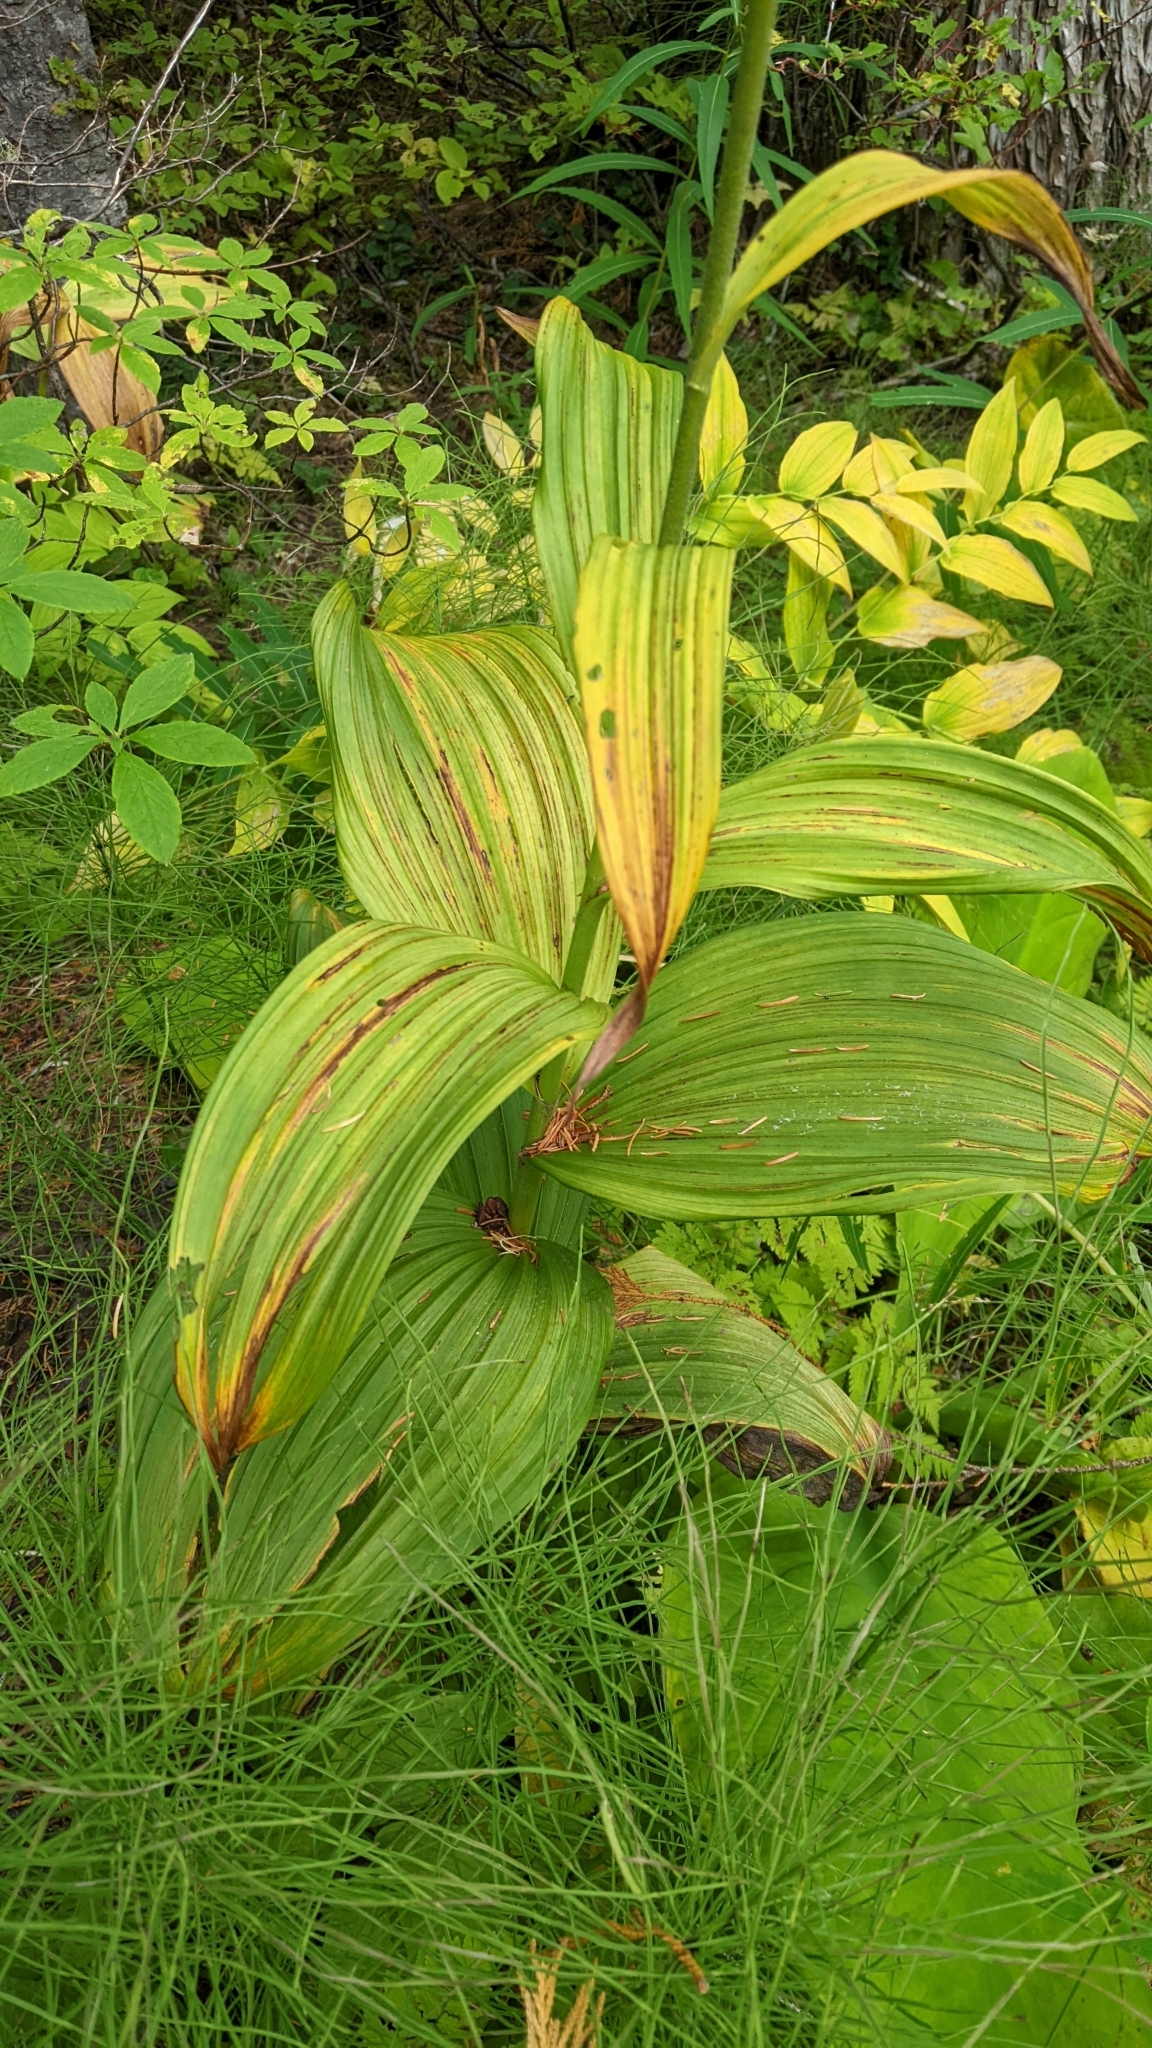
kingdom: Plantae
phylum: Tracheophyta
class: Liliopsida
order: Liliales
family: Melanthiaceae
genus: Veratrum
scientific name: Veratrum viride
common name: American false hellebore
